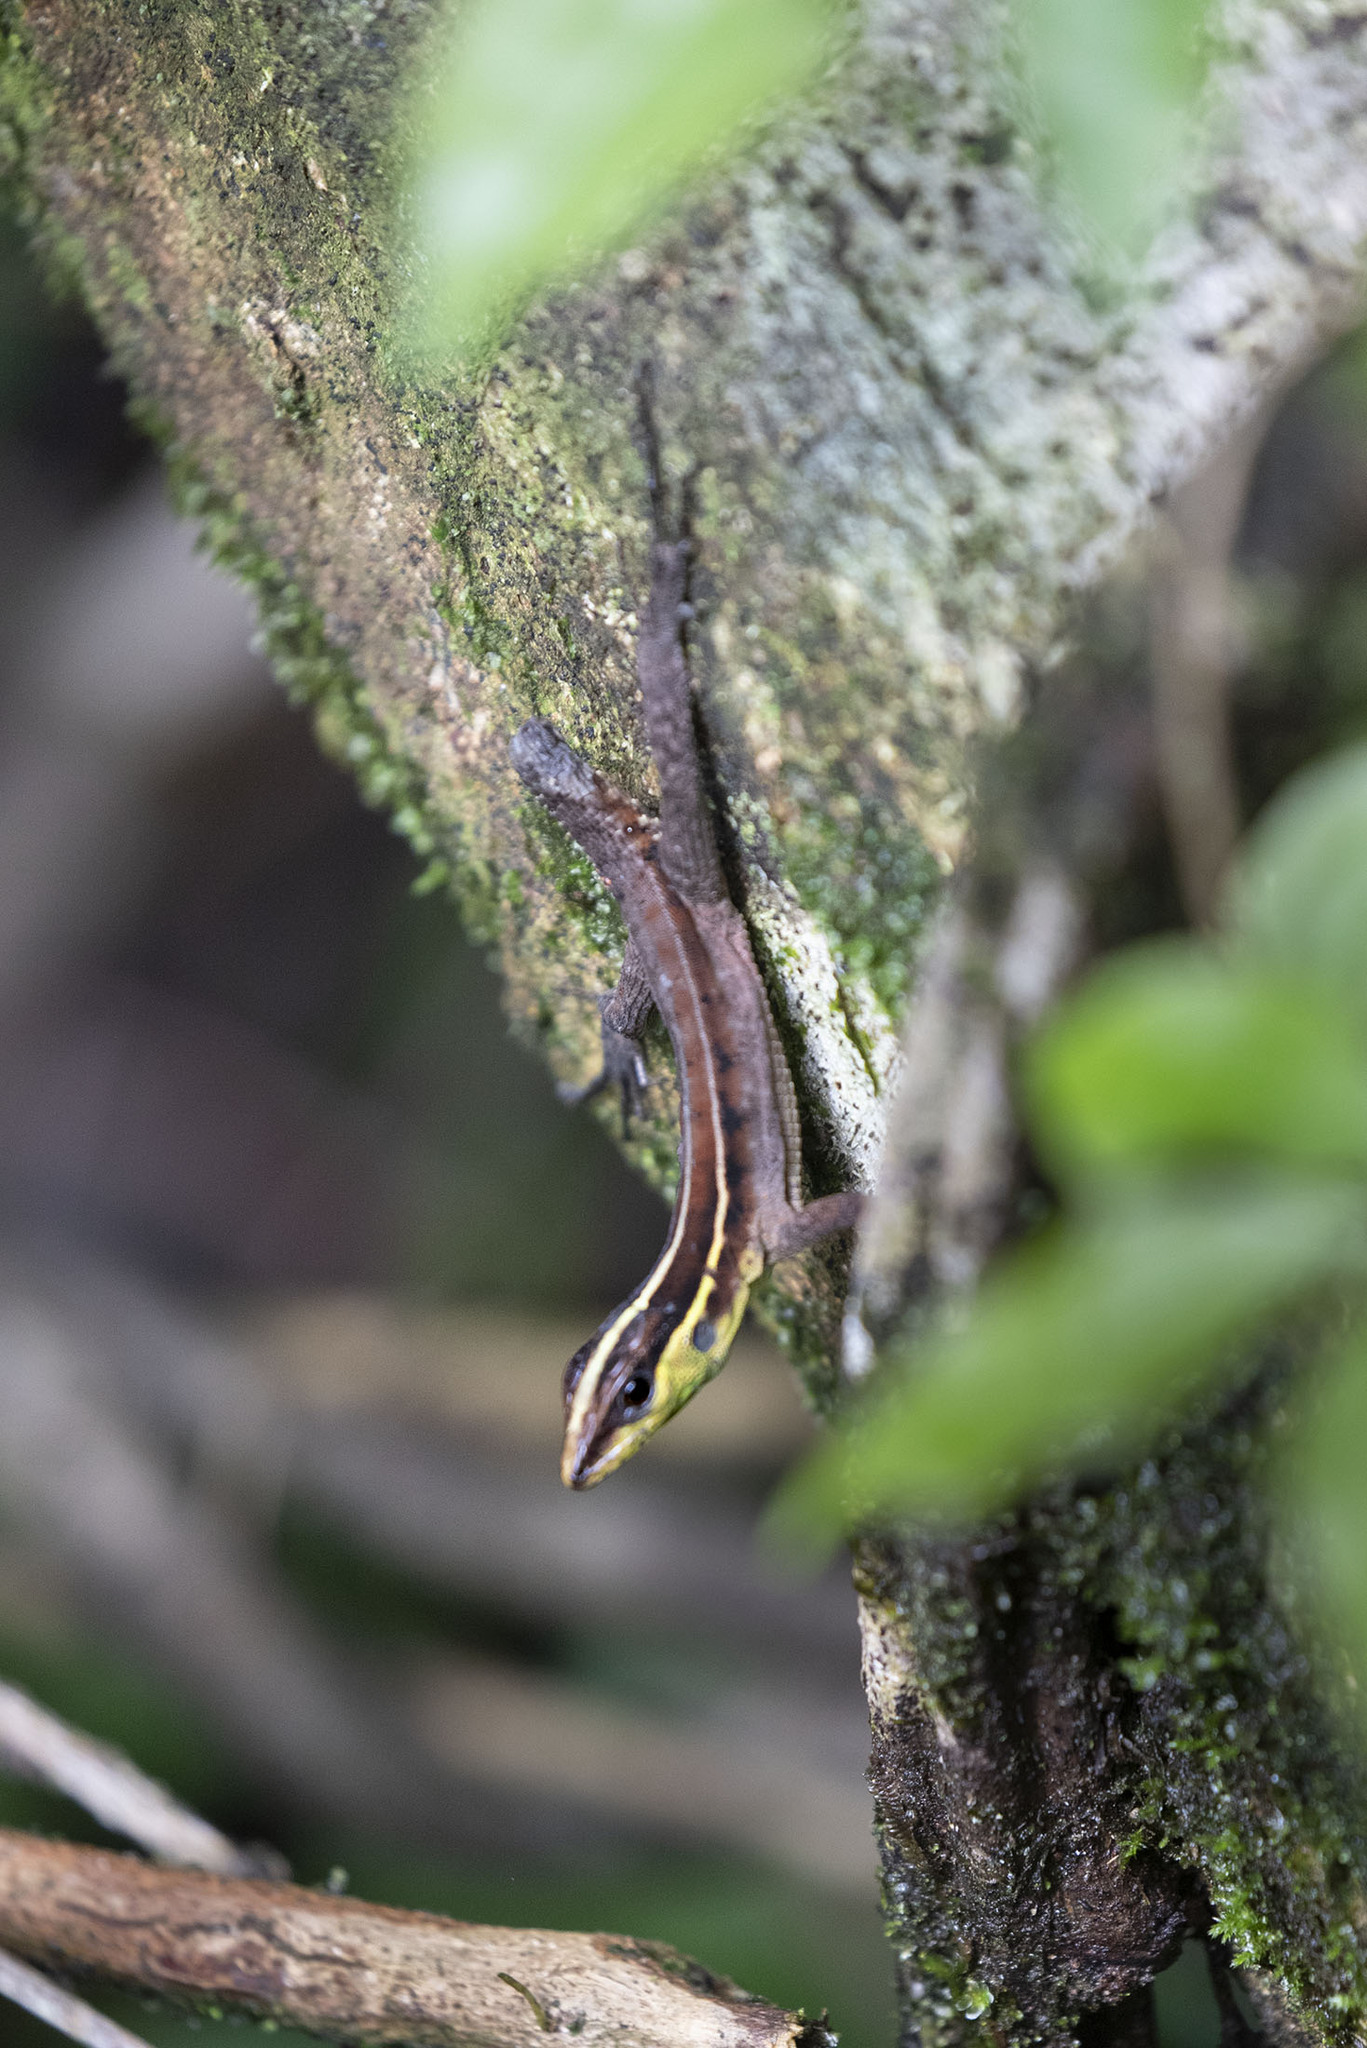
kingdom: Animalia
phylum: Chordata
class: Squamata
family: Teiidae
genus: Kentropyx
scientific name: Kentropyx calcarata
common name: Striped forest whiptail
